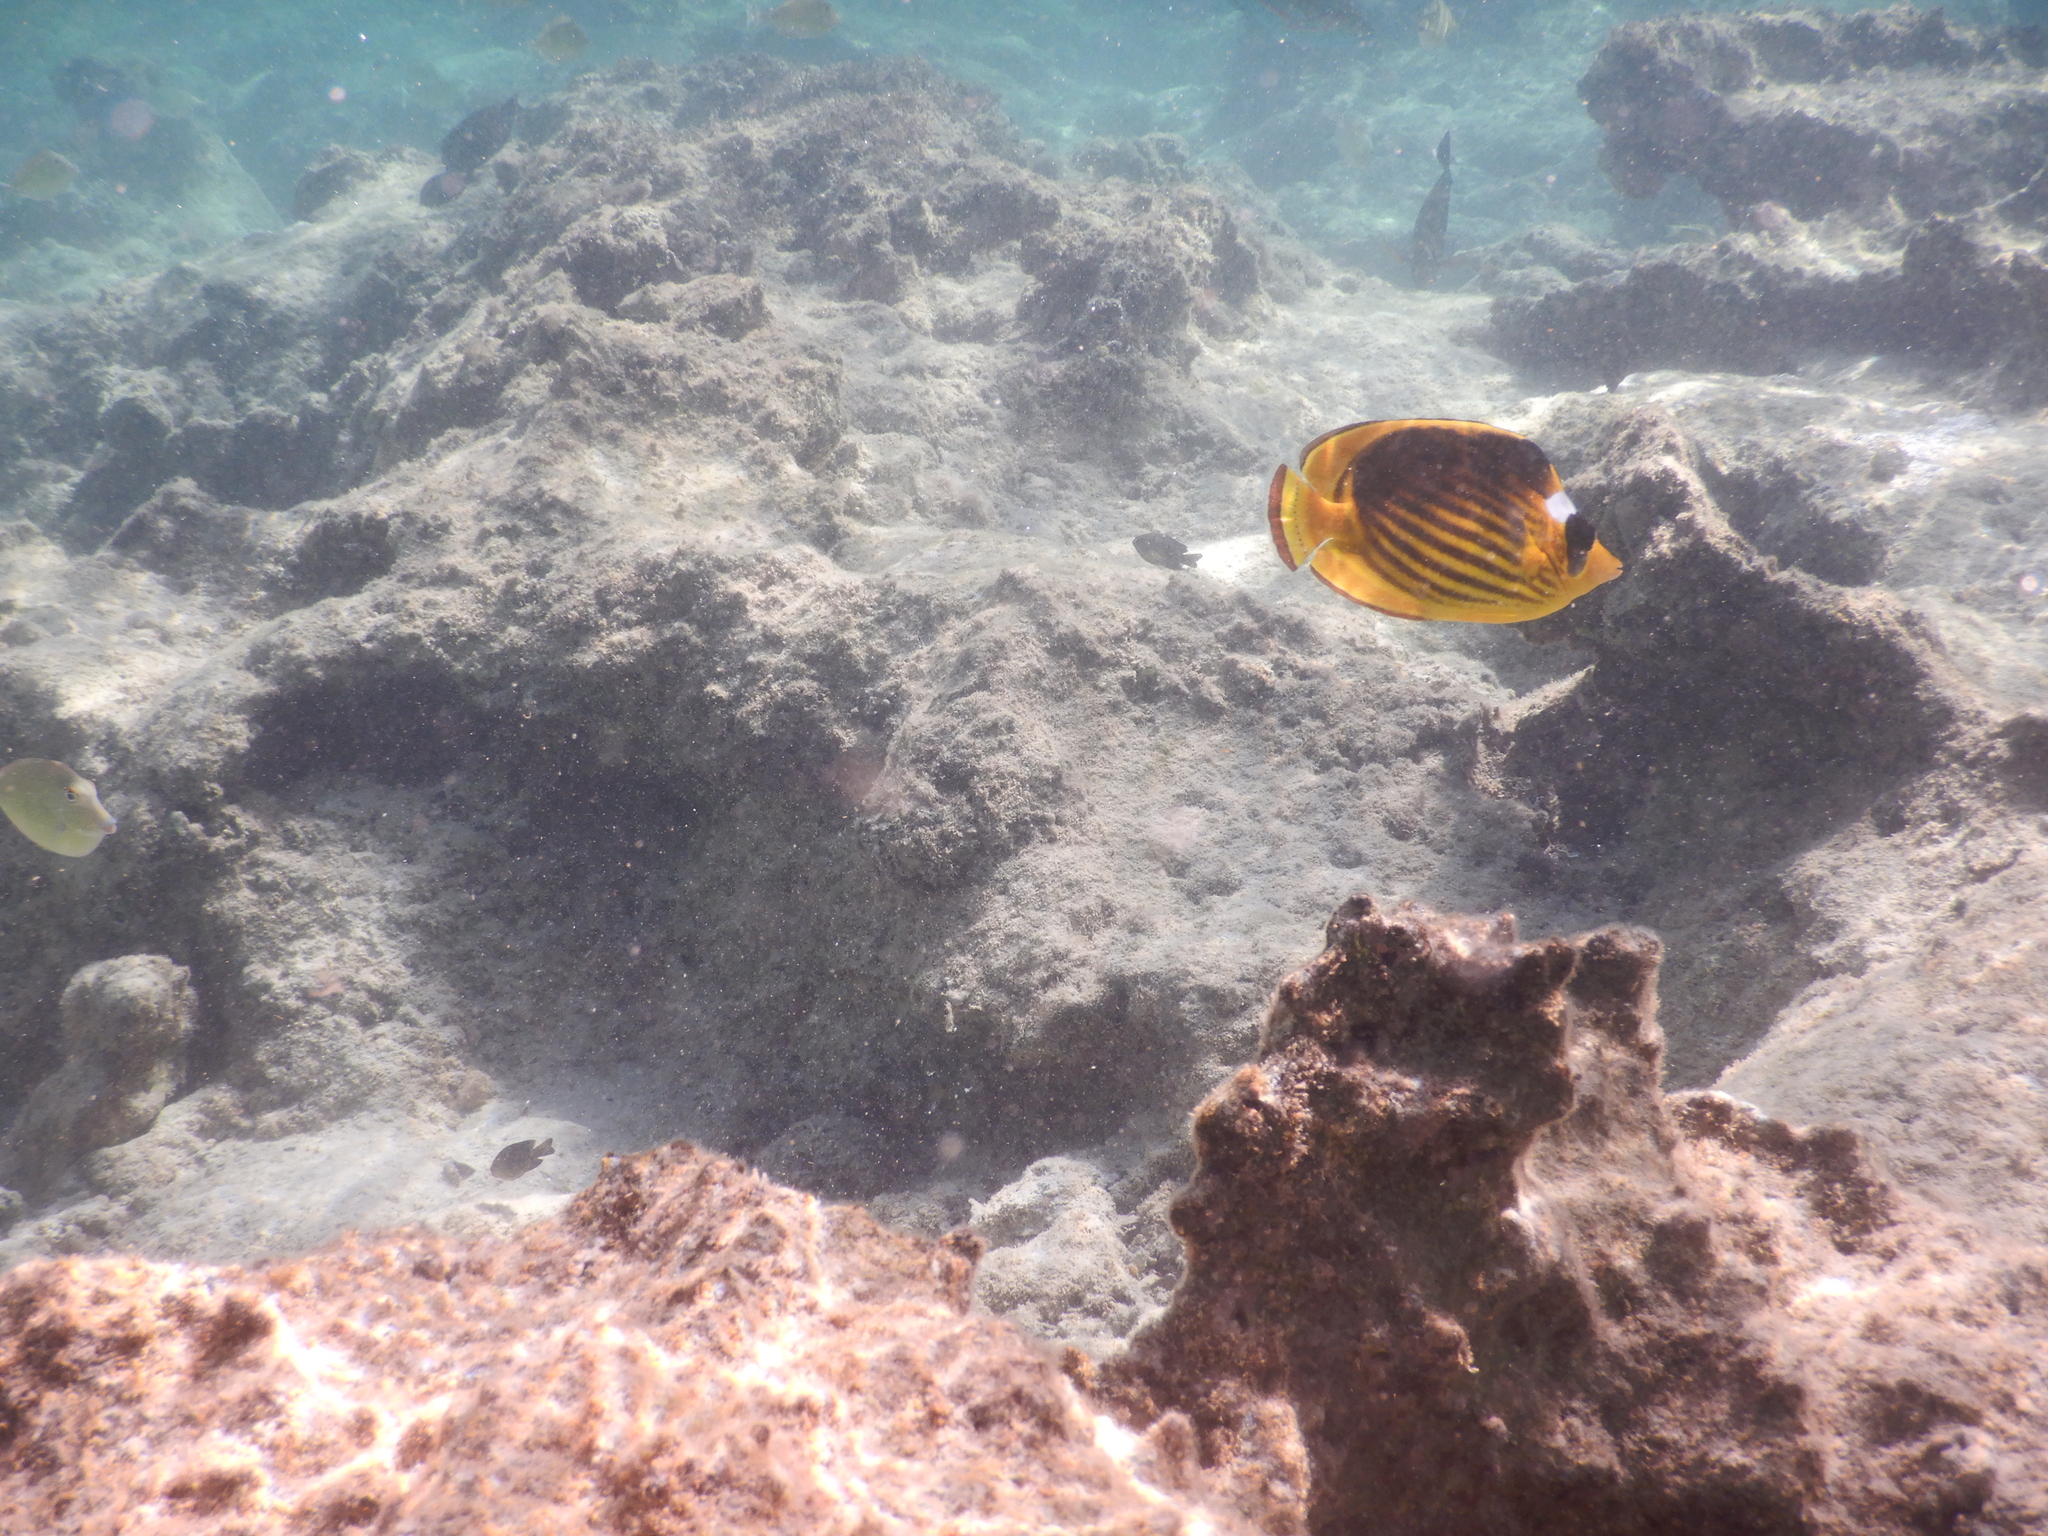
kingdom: Animalia
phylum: Chordata
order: Perciformes
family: Chaetodontidae
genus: Chaetodon
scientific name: Chaetodon fasciatus
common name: Diagonal butterflyfish
